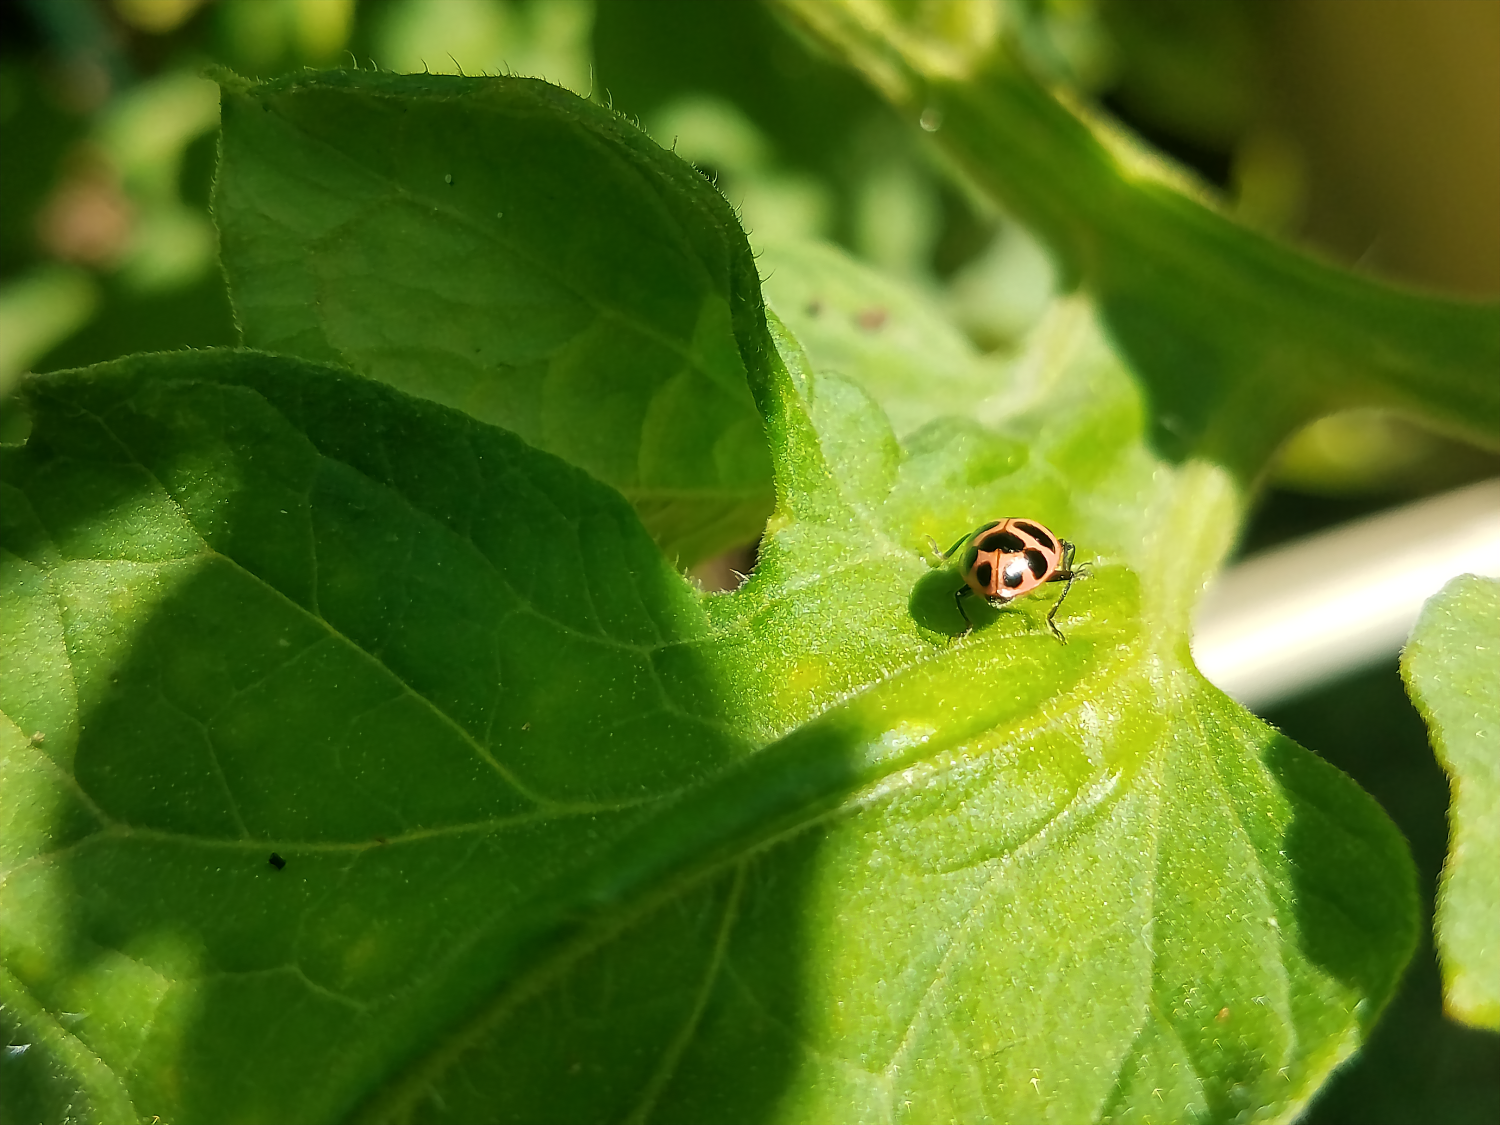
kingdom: Animalia
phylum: Arthropoda
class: Insecta
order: Coleoptera
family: Coccinellidae
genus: Coleomegilla
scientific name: Coleomegilla maculata
